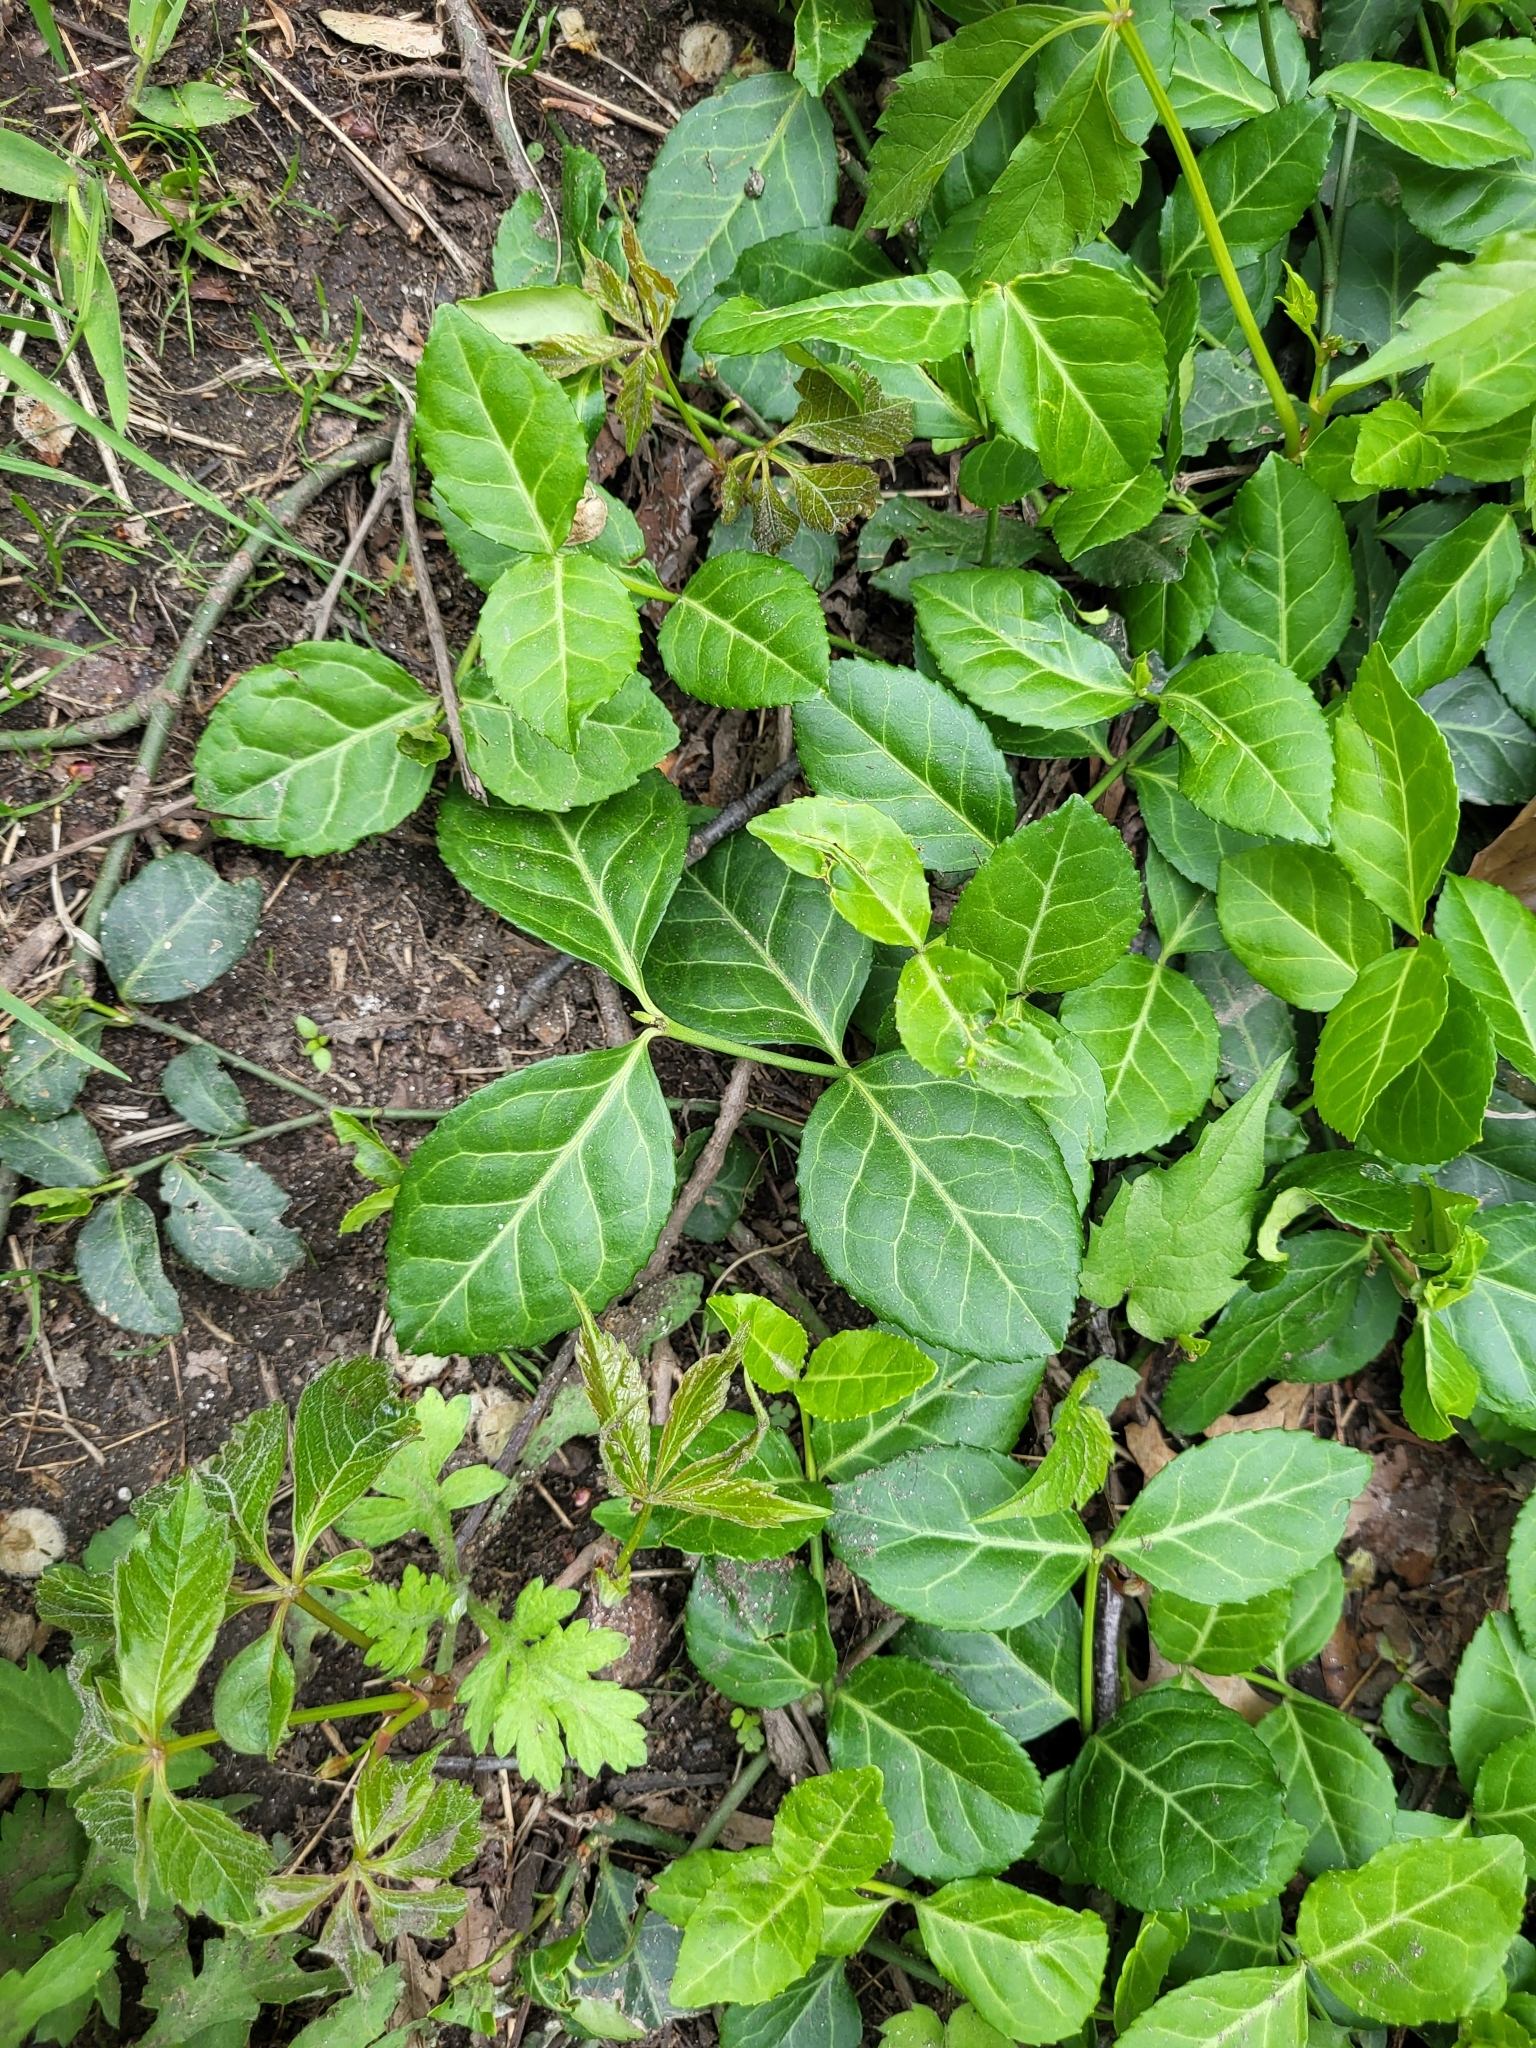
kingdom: Plantae
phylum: Tracheophyta
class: Magnoliopsida
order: Celastrales
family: Celastraceae
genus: Euonymus
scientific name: Euonymus fortunei
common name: Climbing euonymus
